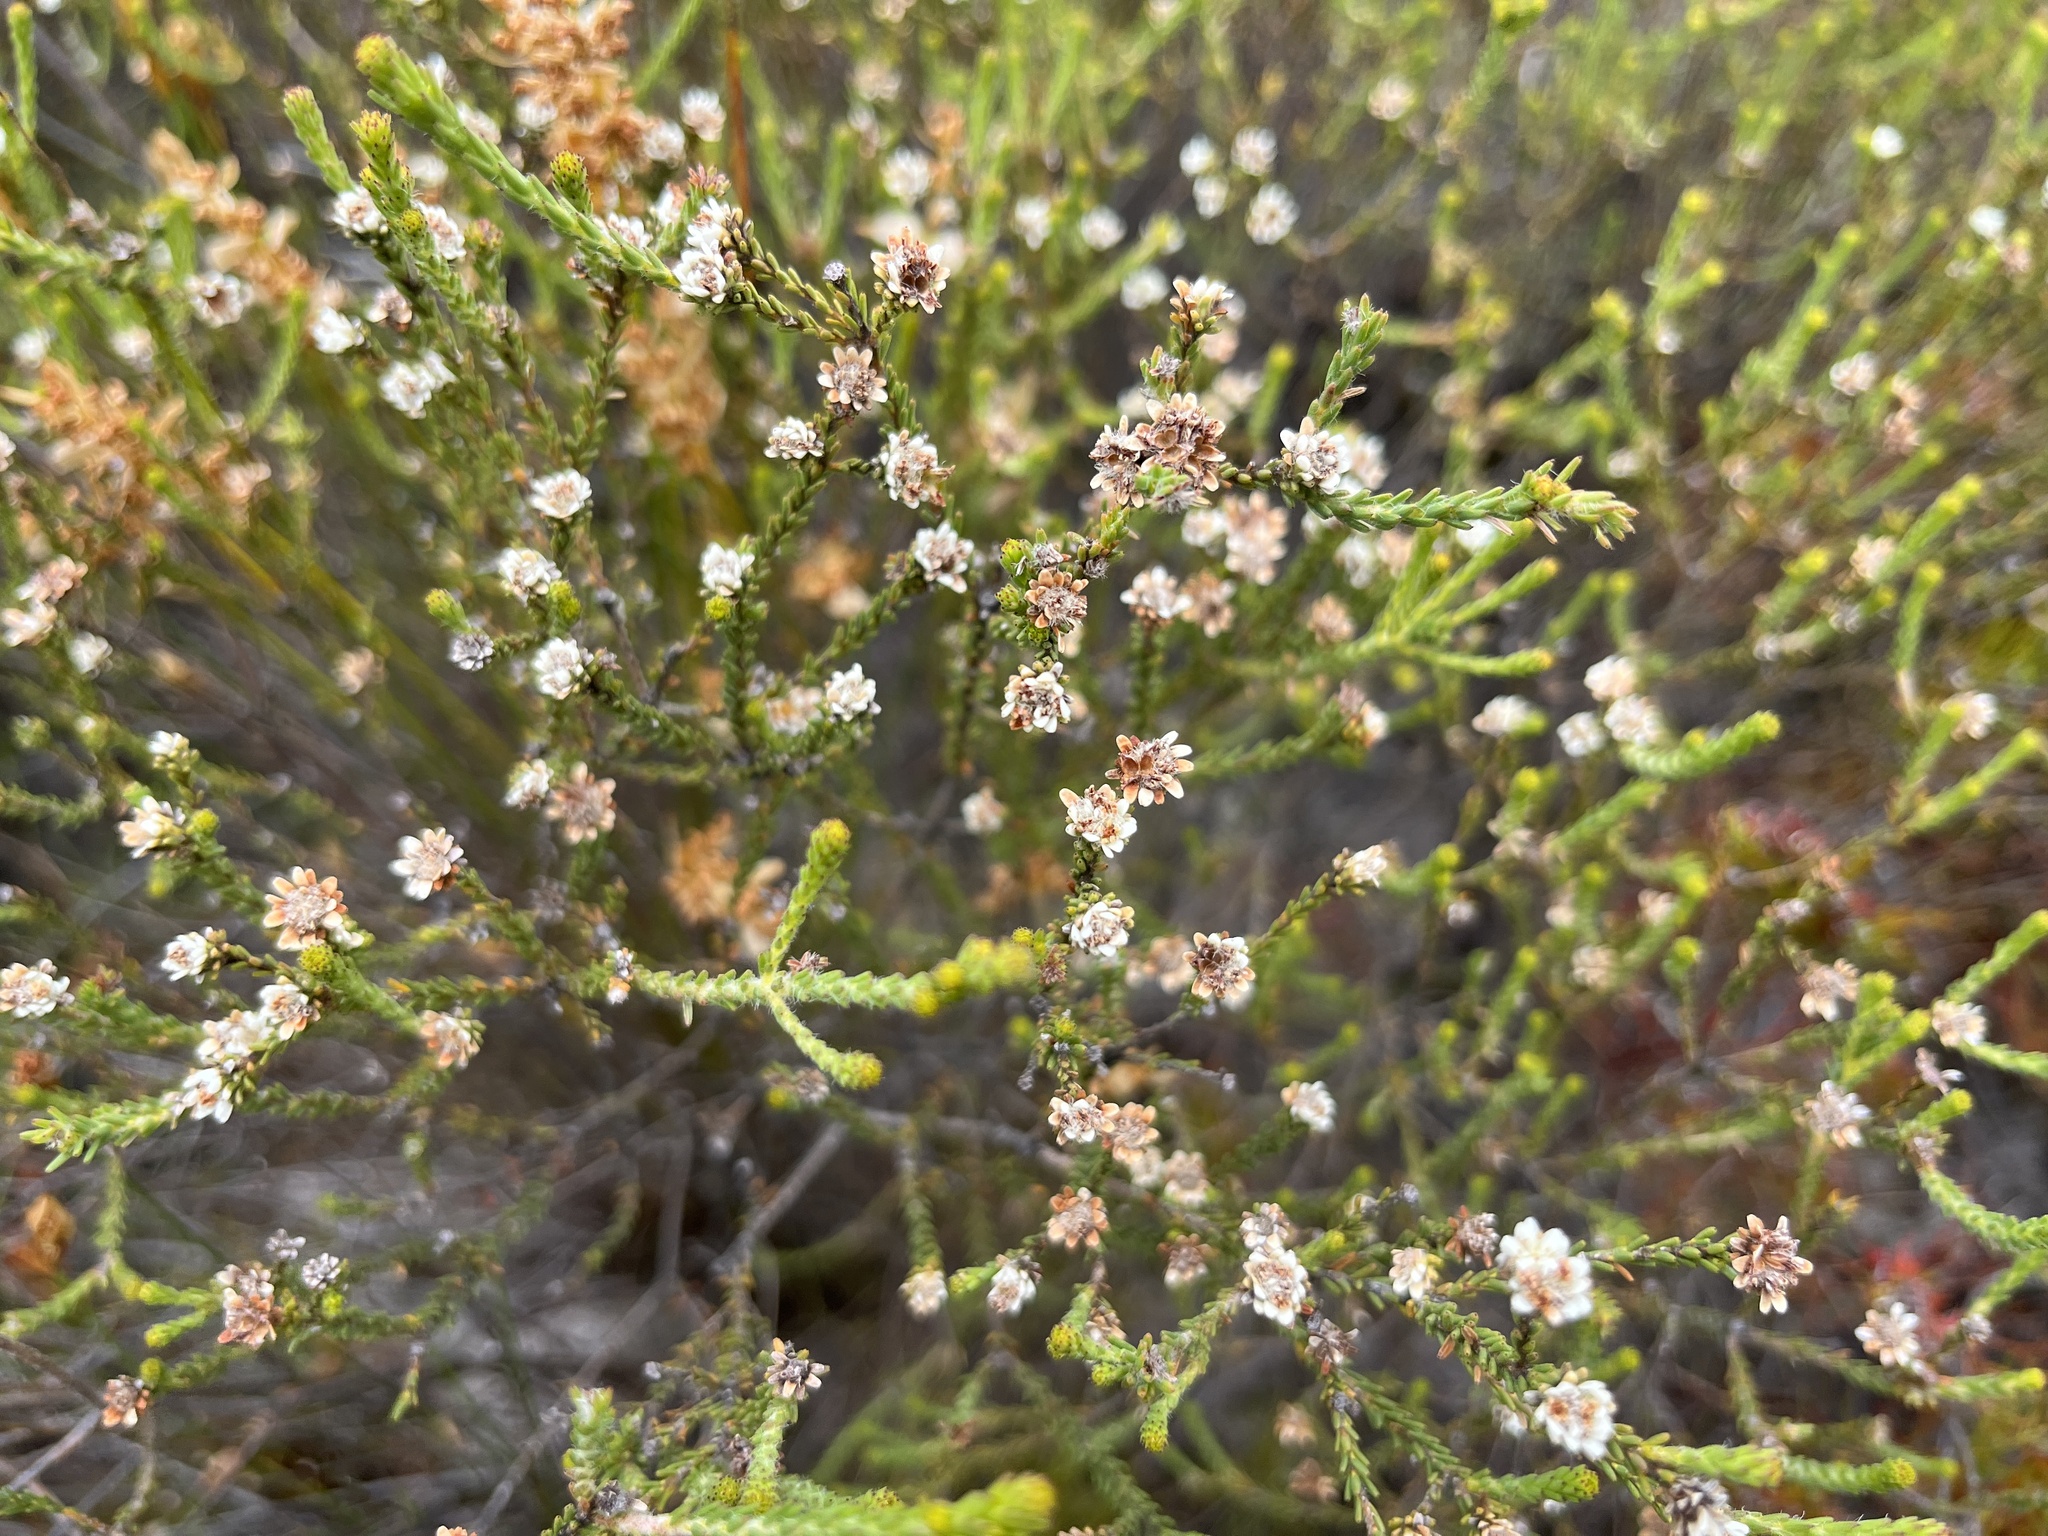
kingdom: Plantae
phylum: Tracheophyta
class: Magnoliopsida
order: Bruniales
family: Bruniaceae
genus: Staavia
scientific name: Staavia radiata
